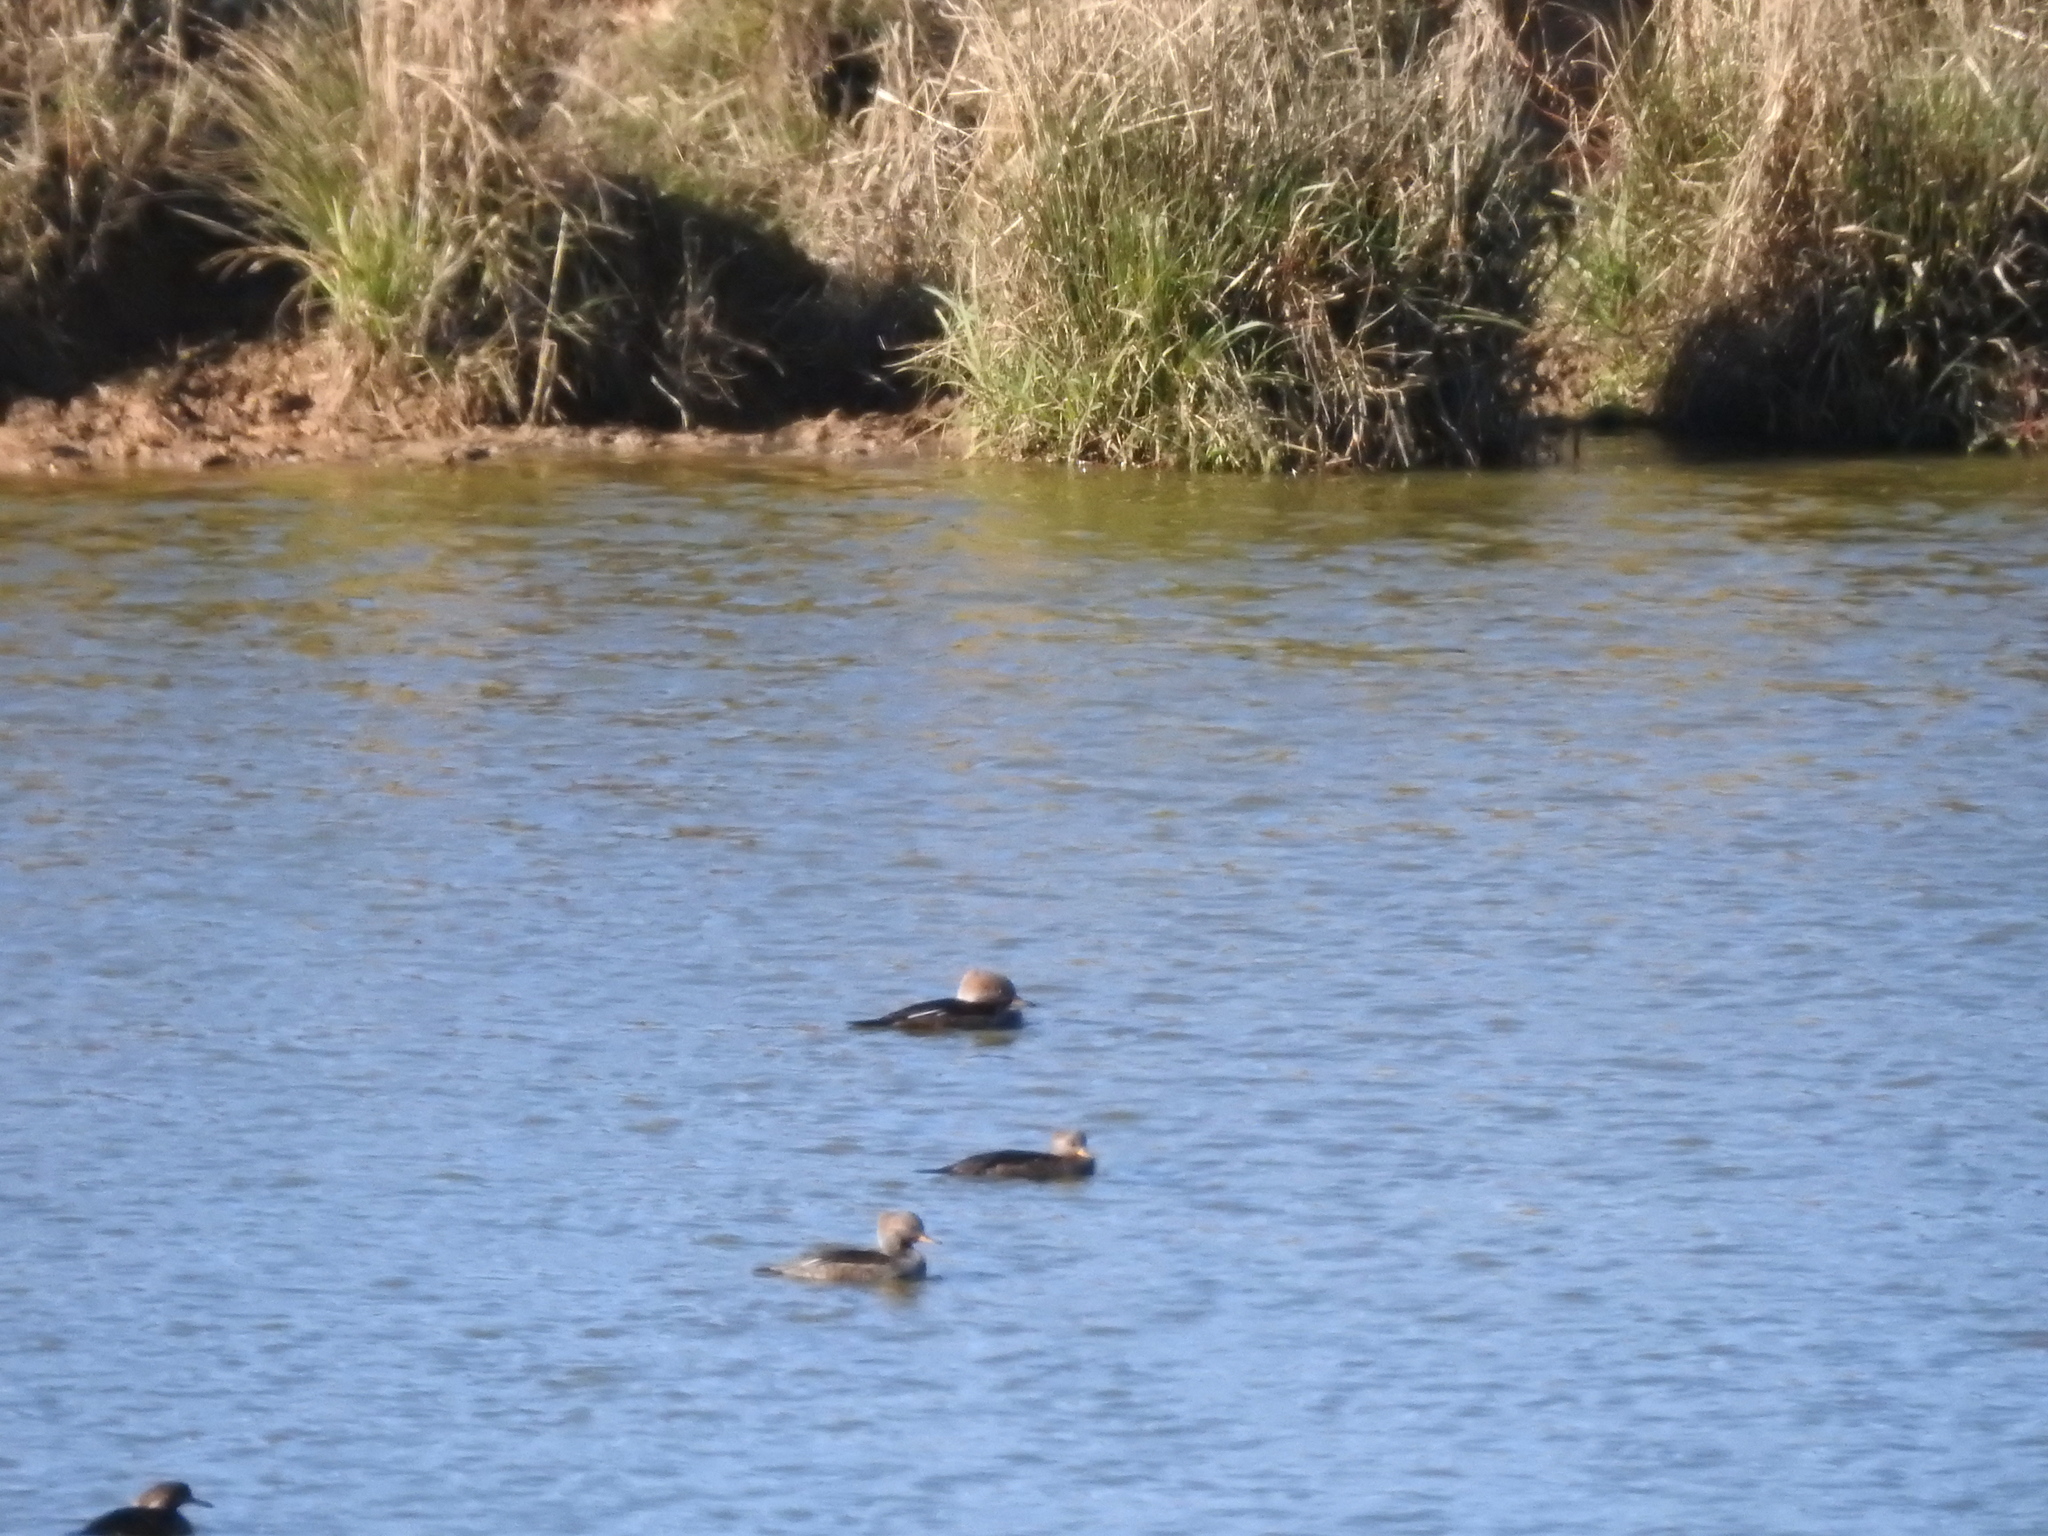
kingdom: Animalia
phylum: Chordata
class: Aves
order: Anseriformes
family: Anatidae
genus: Lophodytes
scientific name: Lophodytes cucullatus
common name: Hooded merganser
